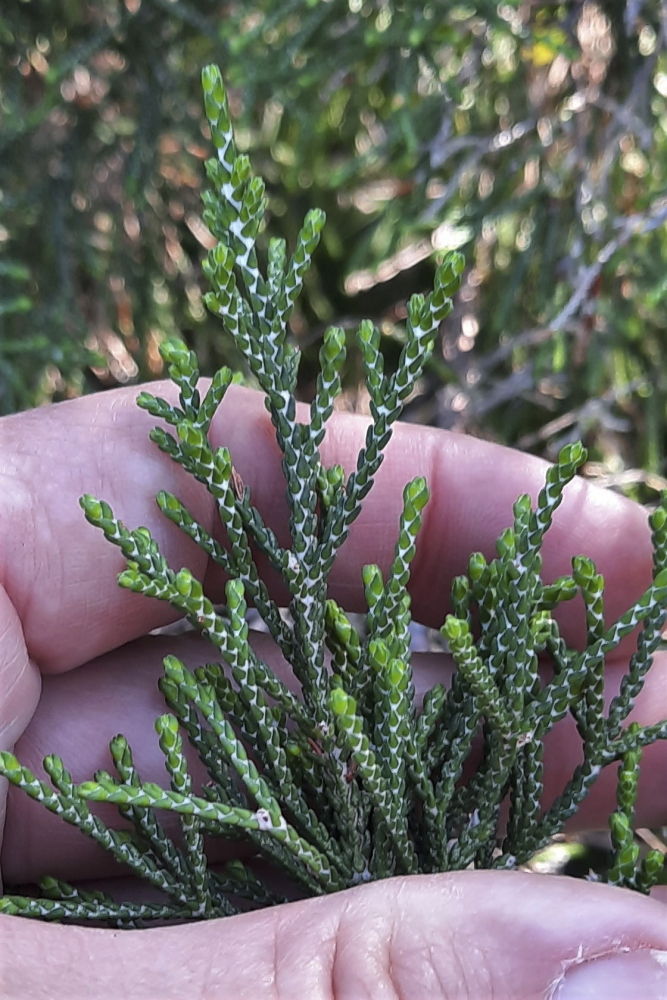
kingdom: Plantae
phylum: Tracheophyta
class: Magnoliopsida
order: Malvales
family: Thymelaeaceae
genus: Passerina
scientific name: Passerina rigida
